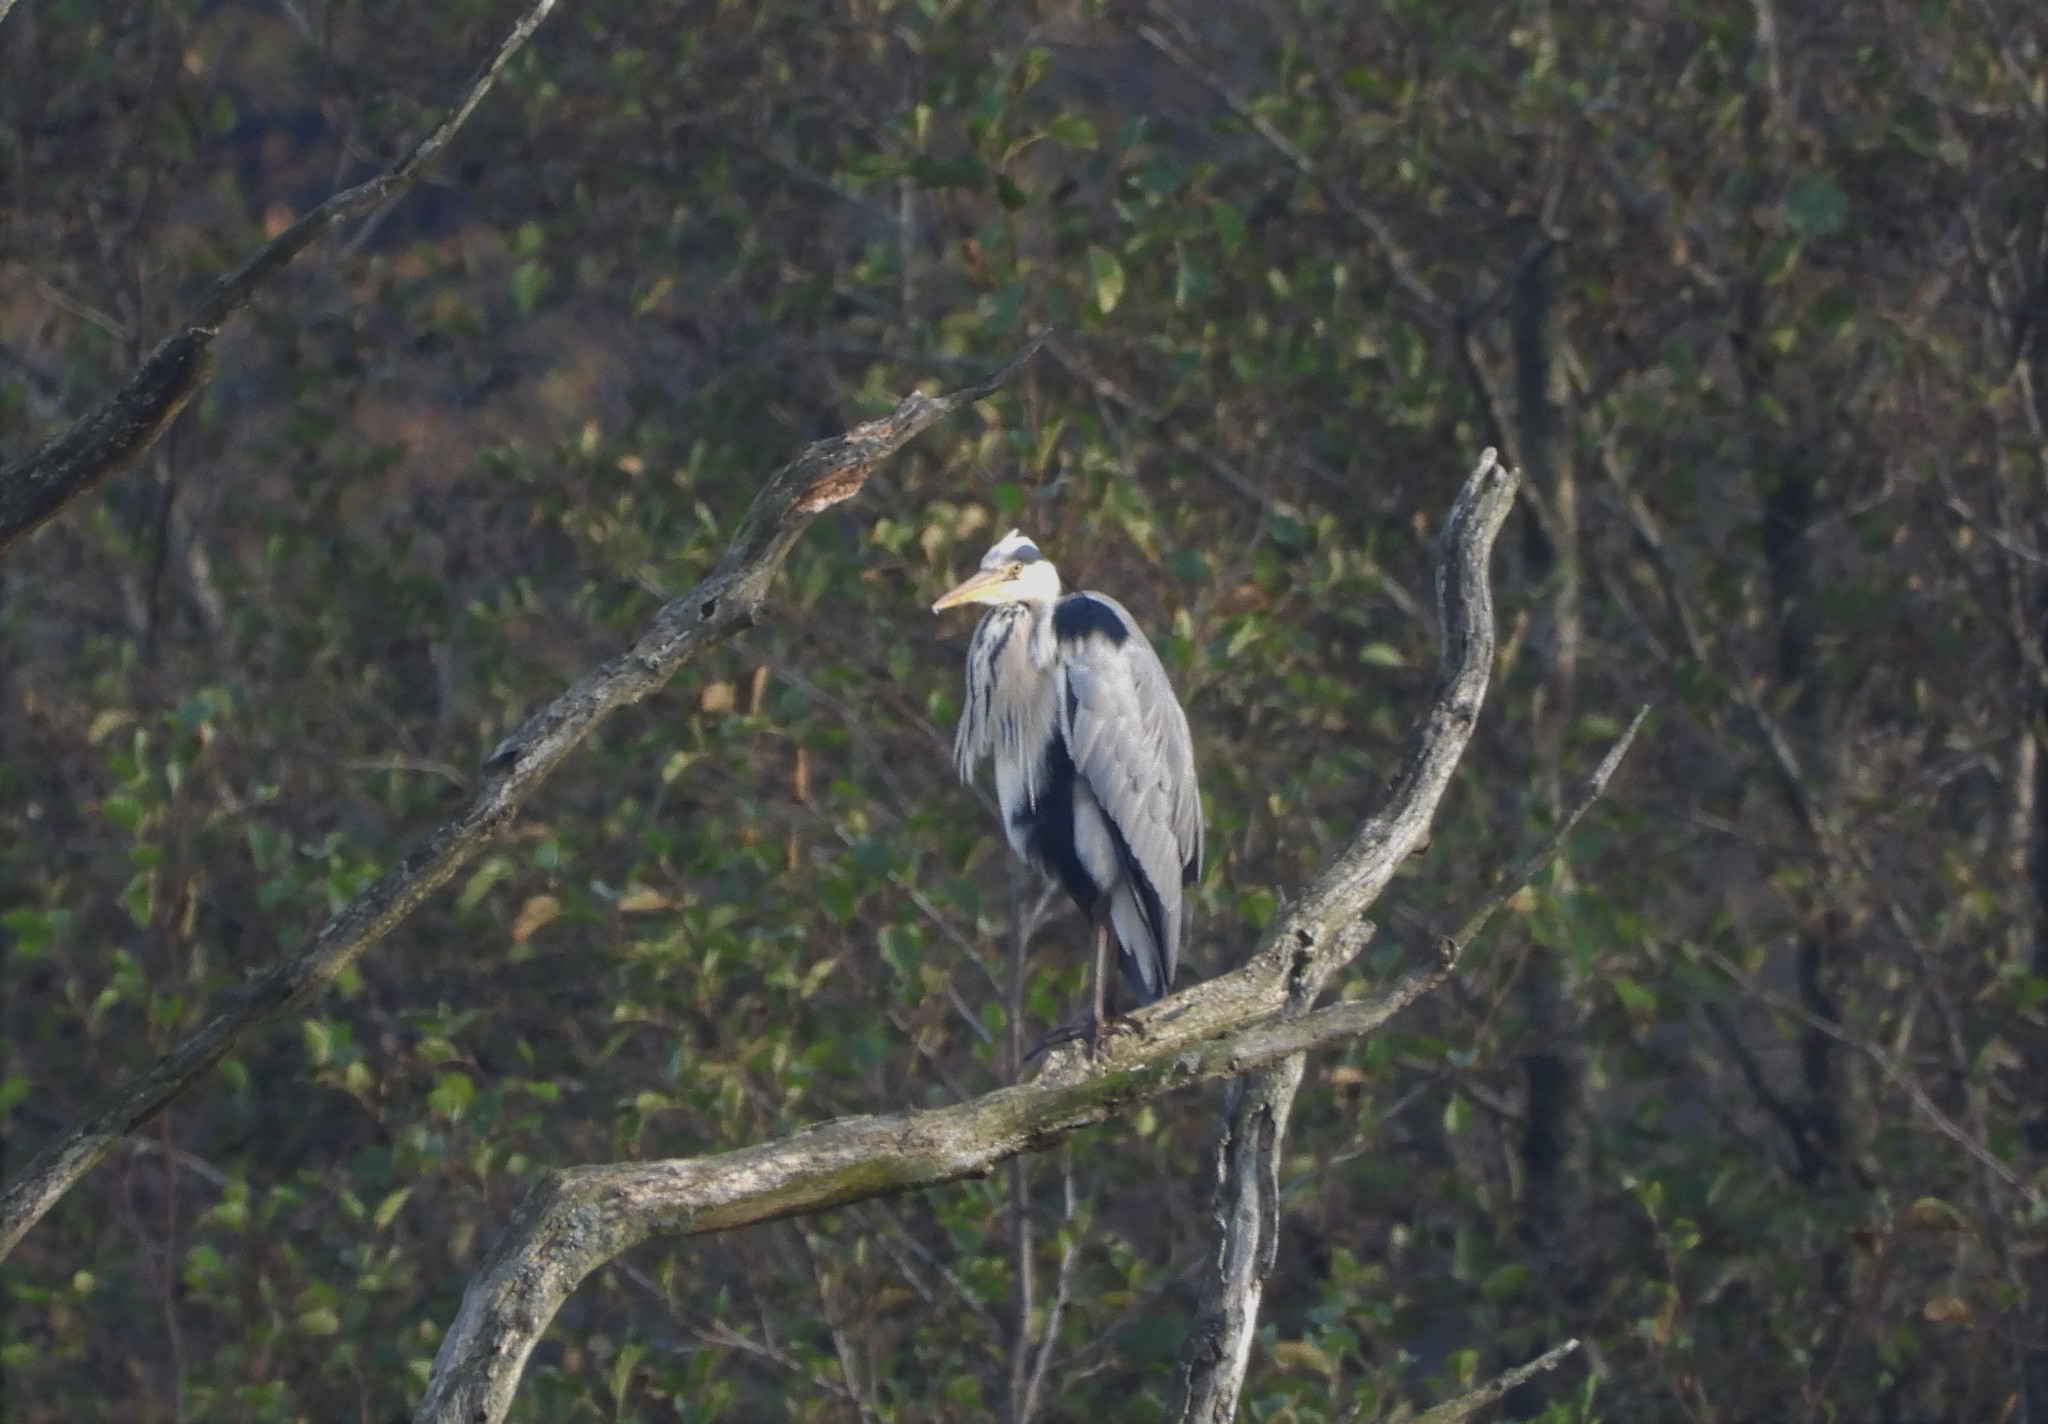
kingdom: Animalia
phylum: Chordata
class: Aves
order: Pelecaniformes
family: Ardeidae
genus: Ardea
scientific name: Ardea cinerea
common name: Grey heron
